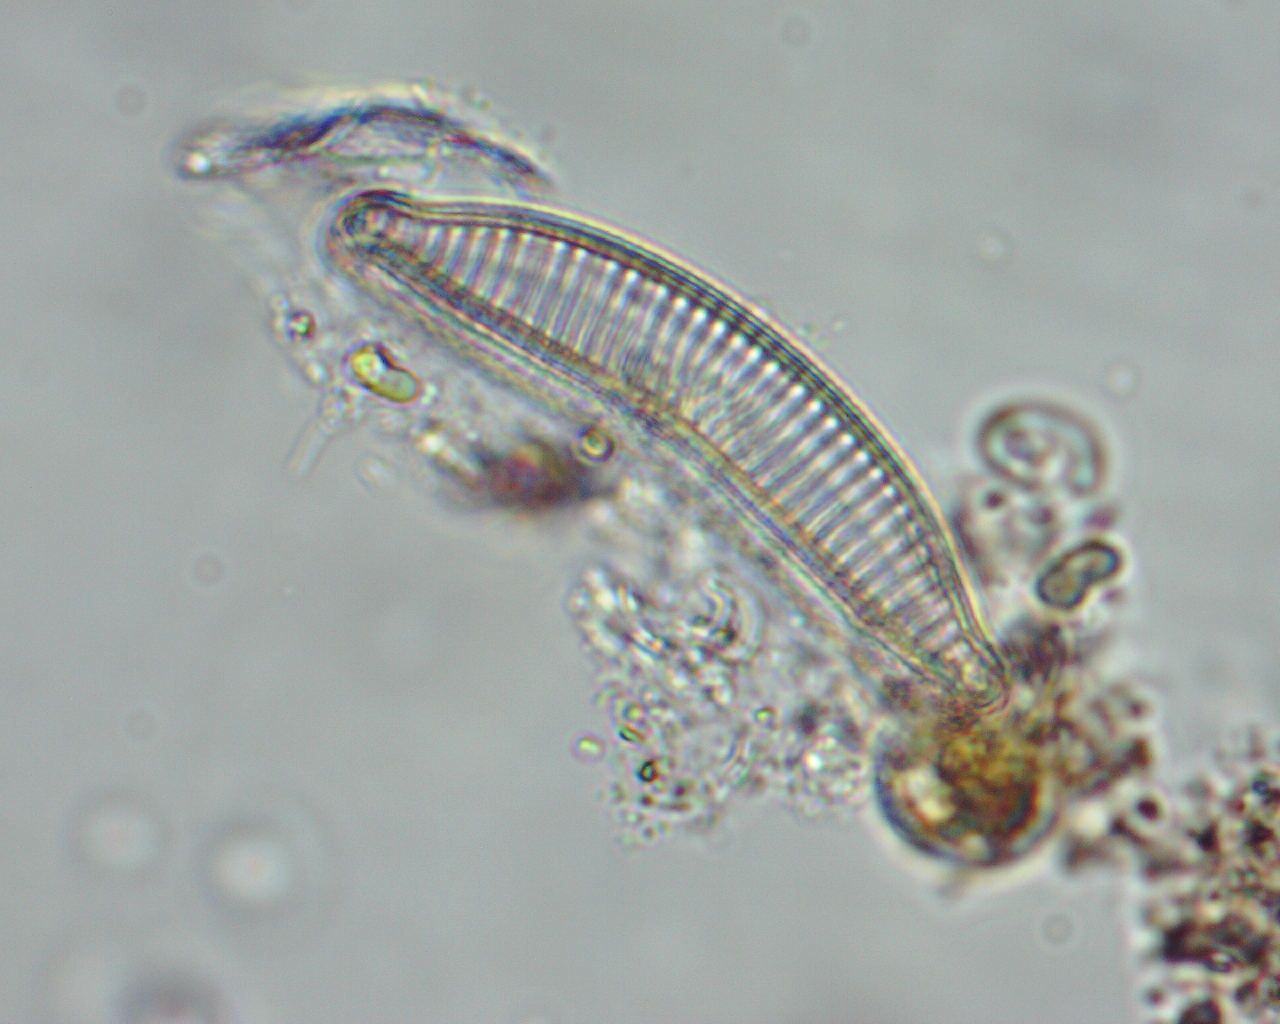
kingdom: Chromista
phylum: Ochrophyta
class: Bacillariophyceae
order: Naviculales
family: Naviculaceae
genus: Navicula
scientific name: Navicula turgida
